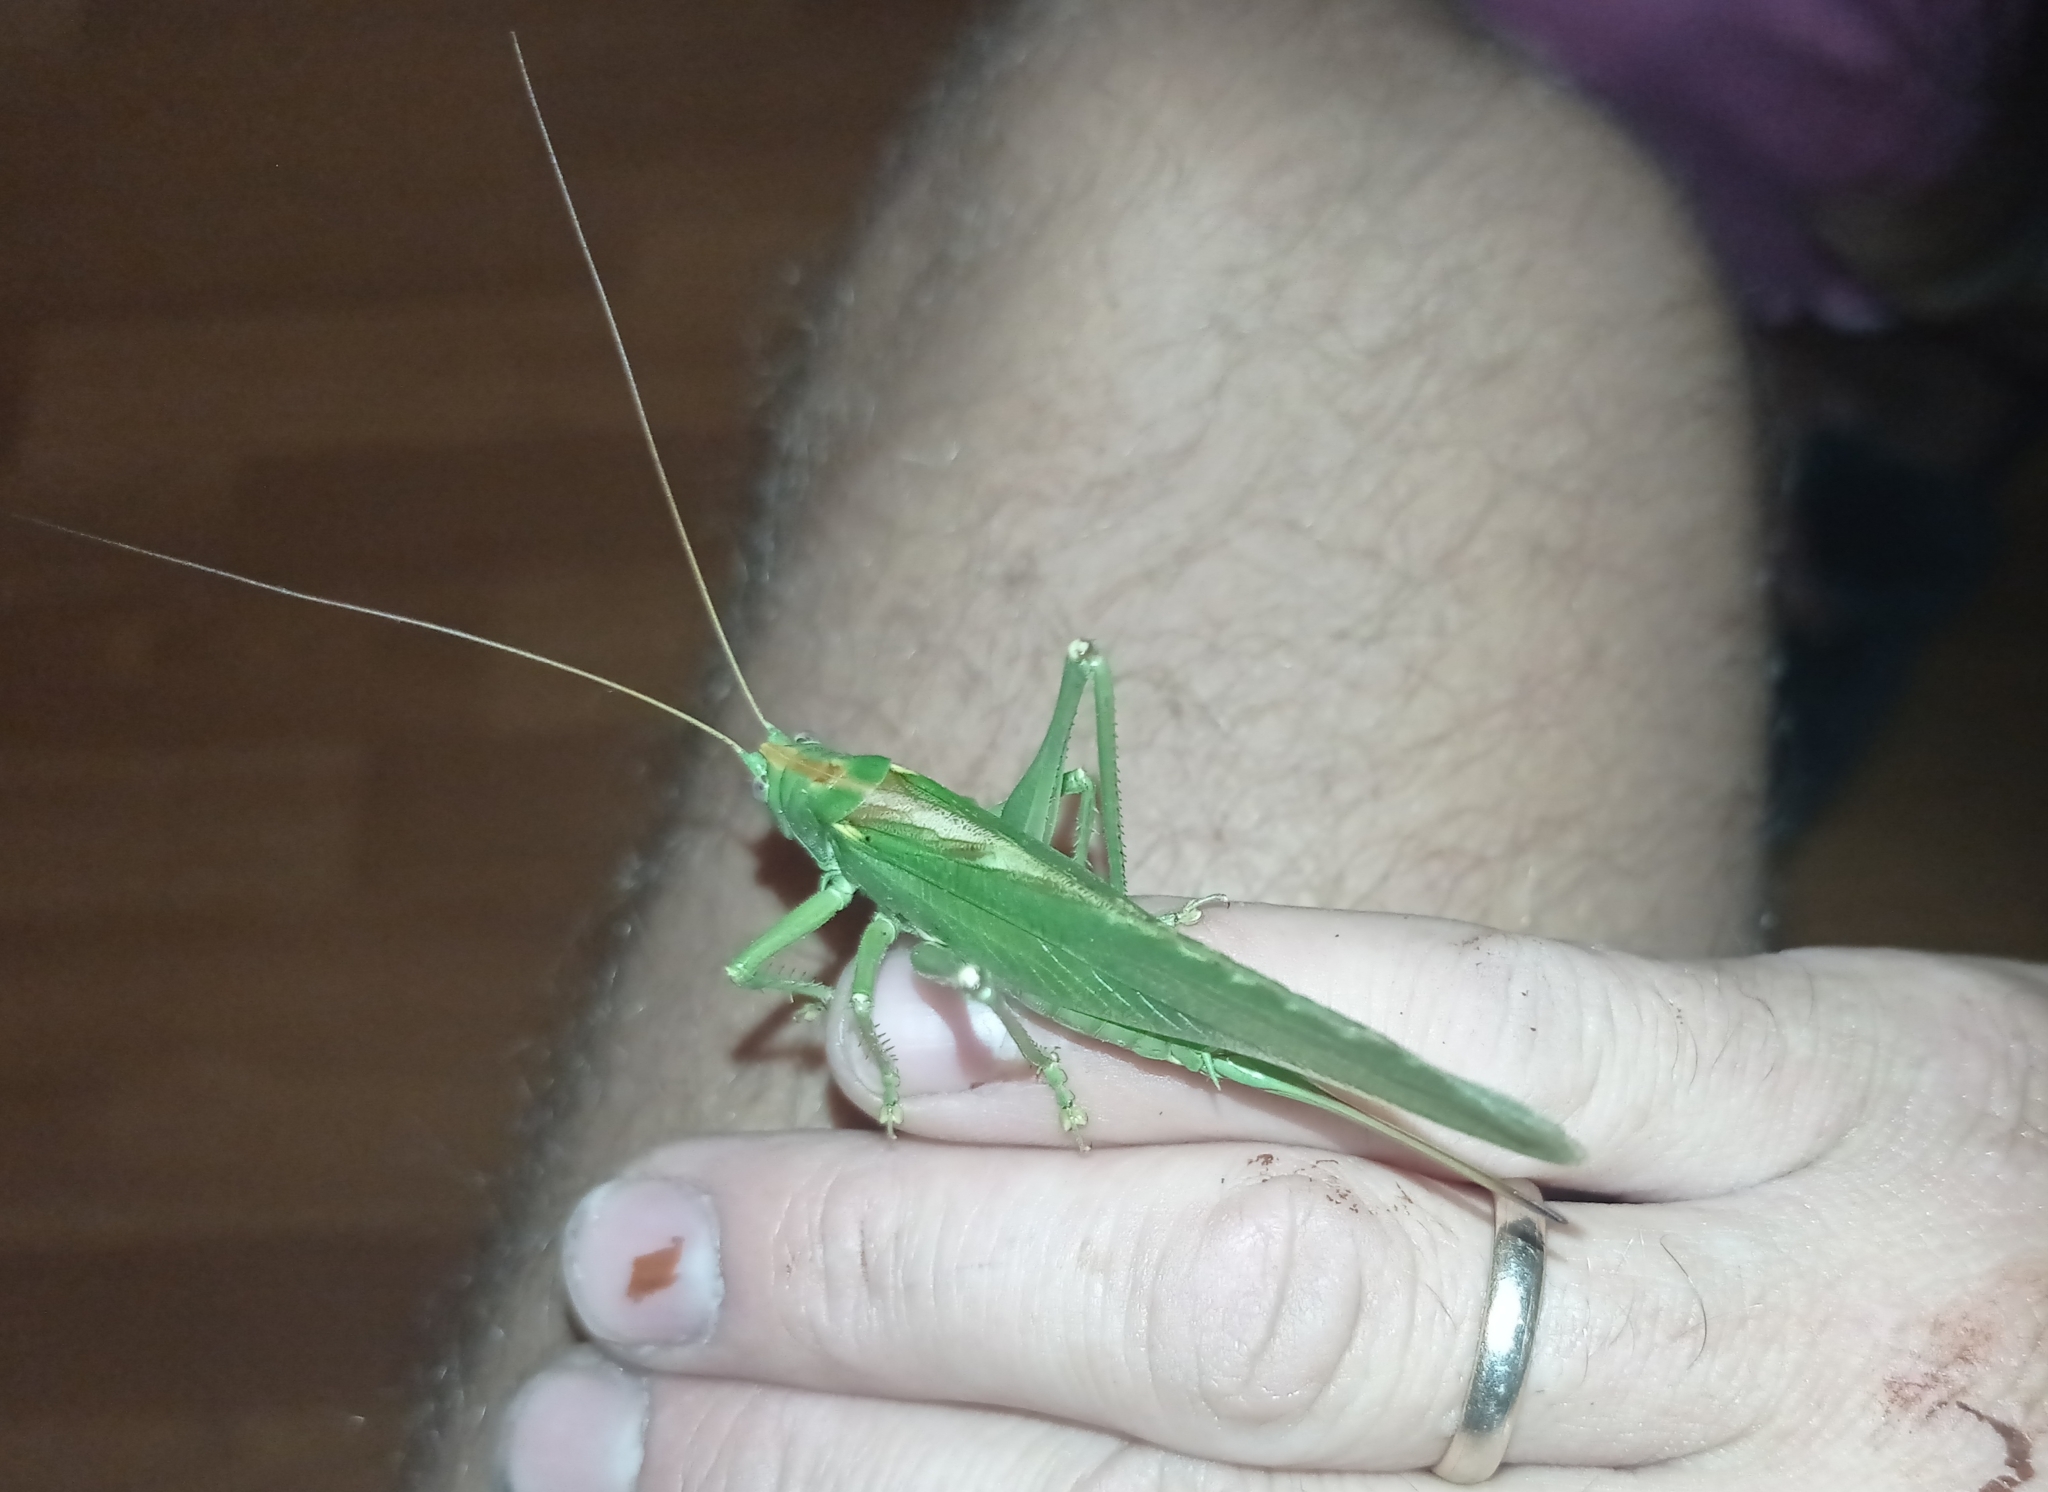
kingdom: Animalia
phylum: Arthropoda
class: Insecta
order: Orthoptera
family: Tettigoniidae
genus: Tettigonia
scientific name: Tettigonia viridissima
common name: Great green bush-cricket
